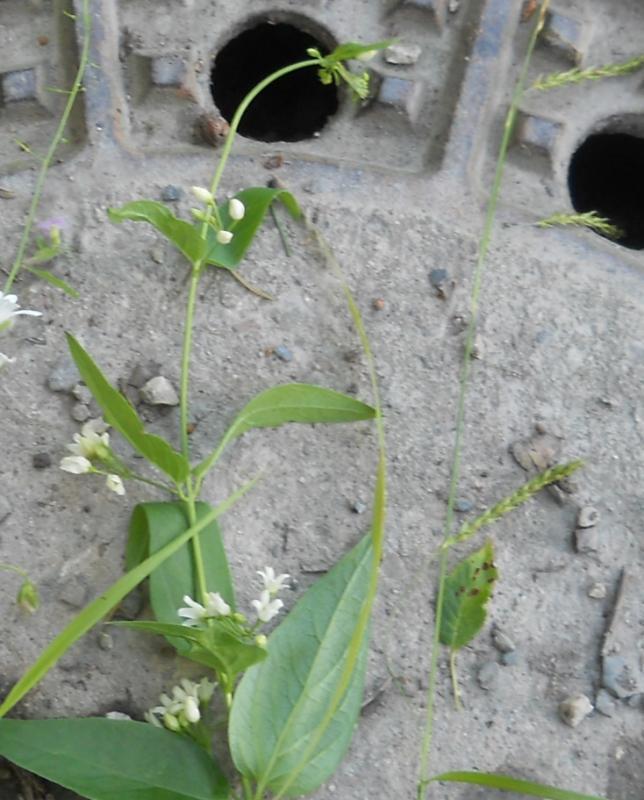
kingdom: Plantae
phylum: Tracheophyta
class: Magnoliopsida
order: Gentianales
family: Apocynaceae
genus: Vincetoxicum
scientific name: Vincetoxicum hirundinaria
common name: White swallowwort
